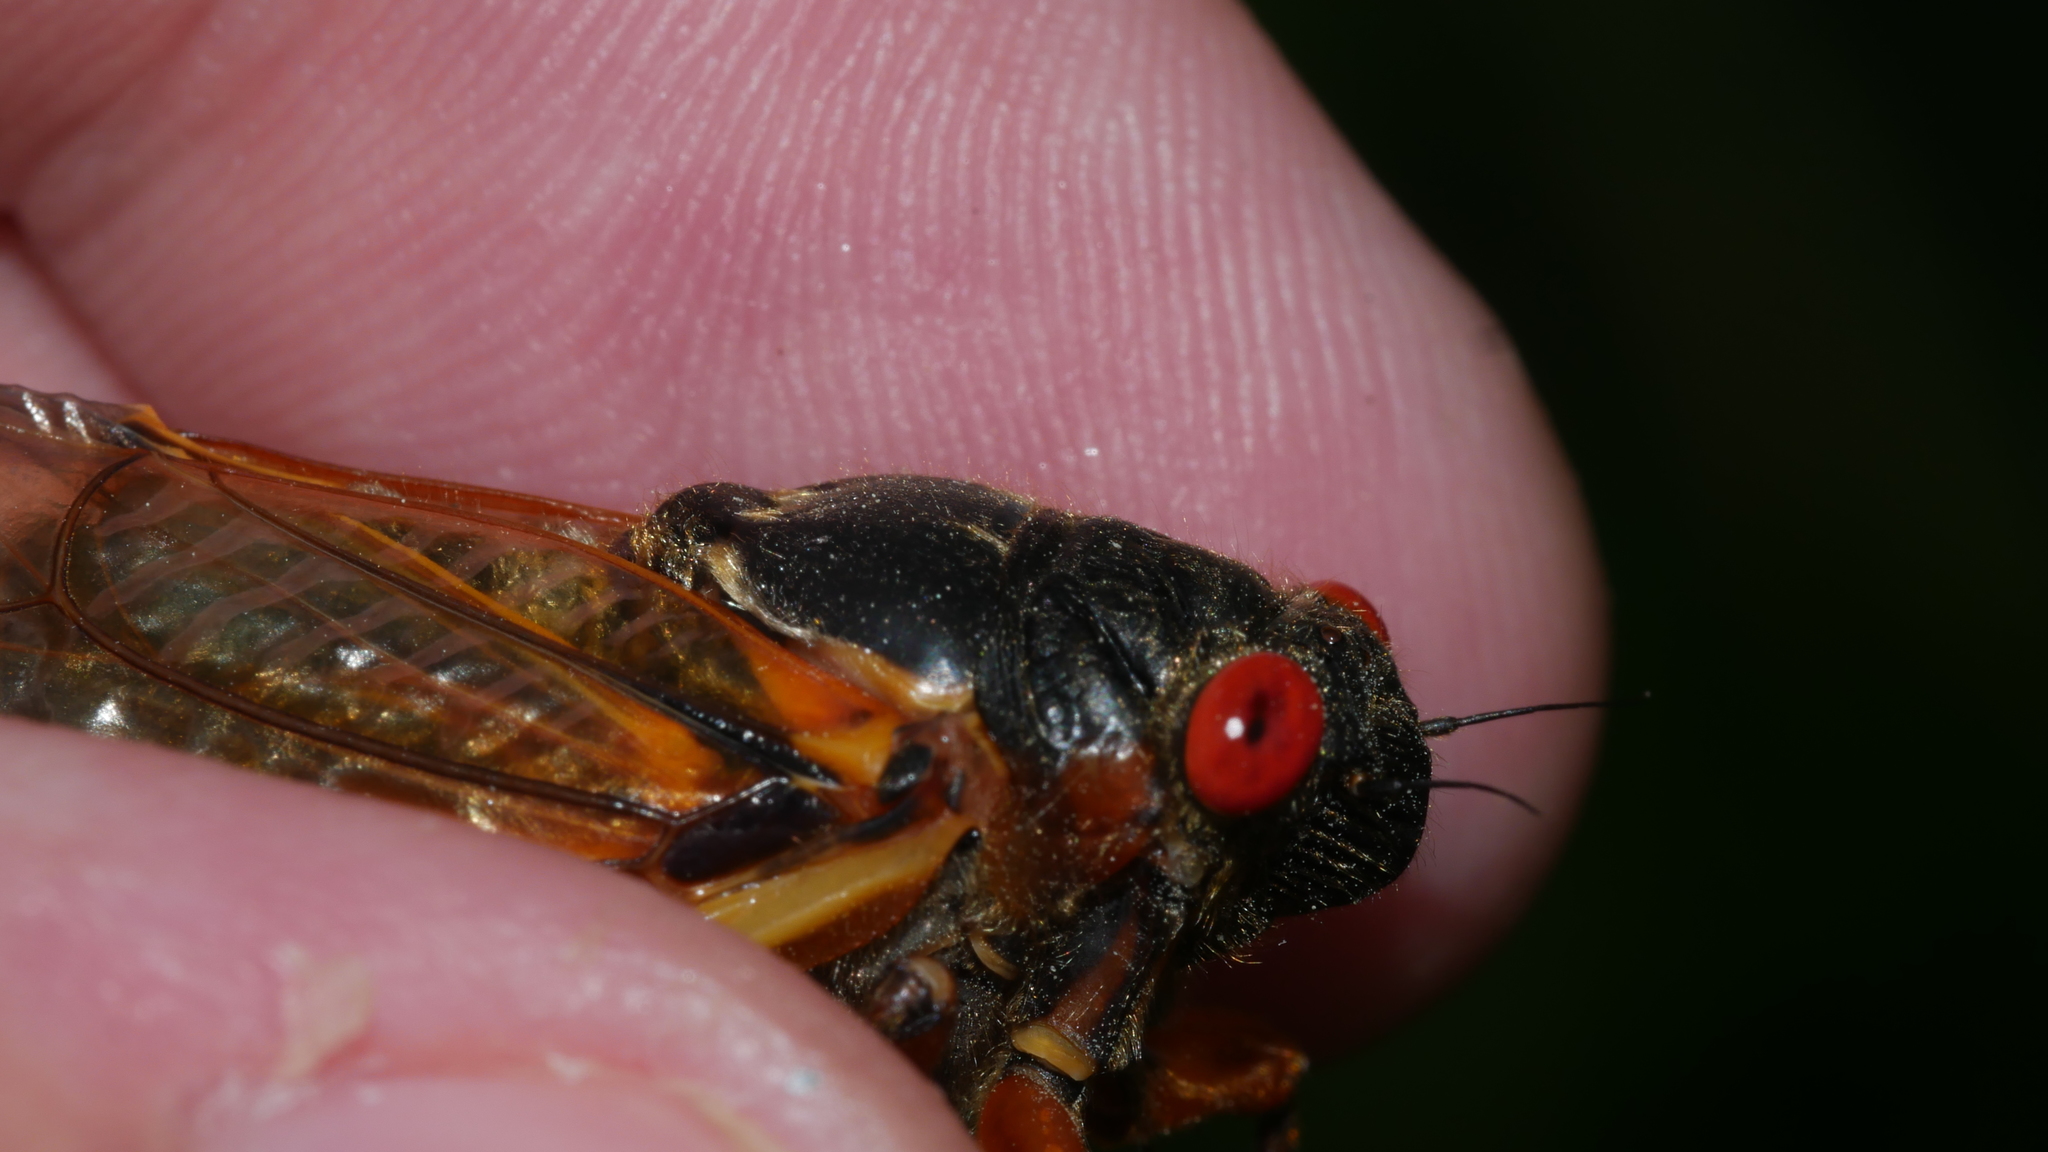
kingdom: Animalia
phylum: Arthropoda
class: Insecta
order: Hemiptera
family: Cicadidae
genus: Magicicada
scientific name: Magicicada septendecim
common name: Periodical cicada
